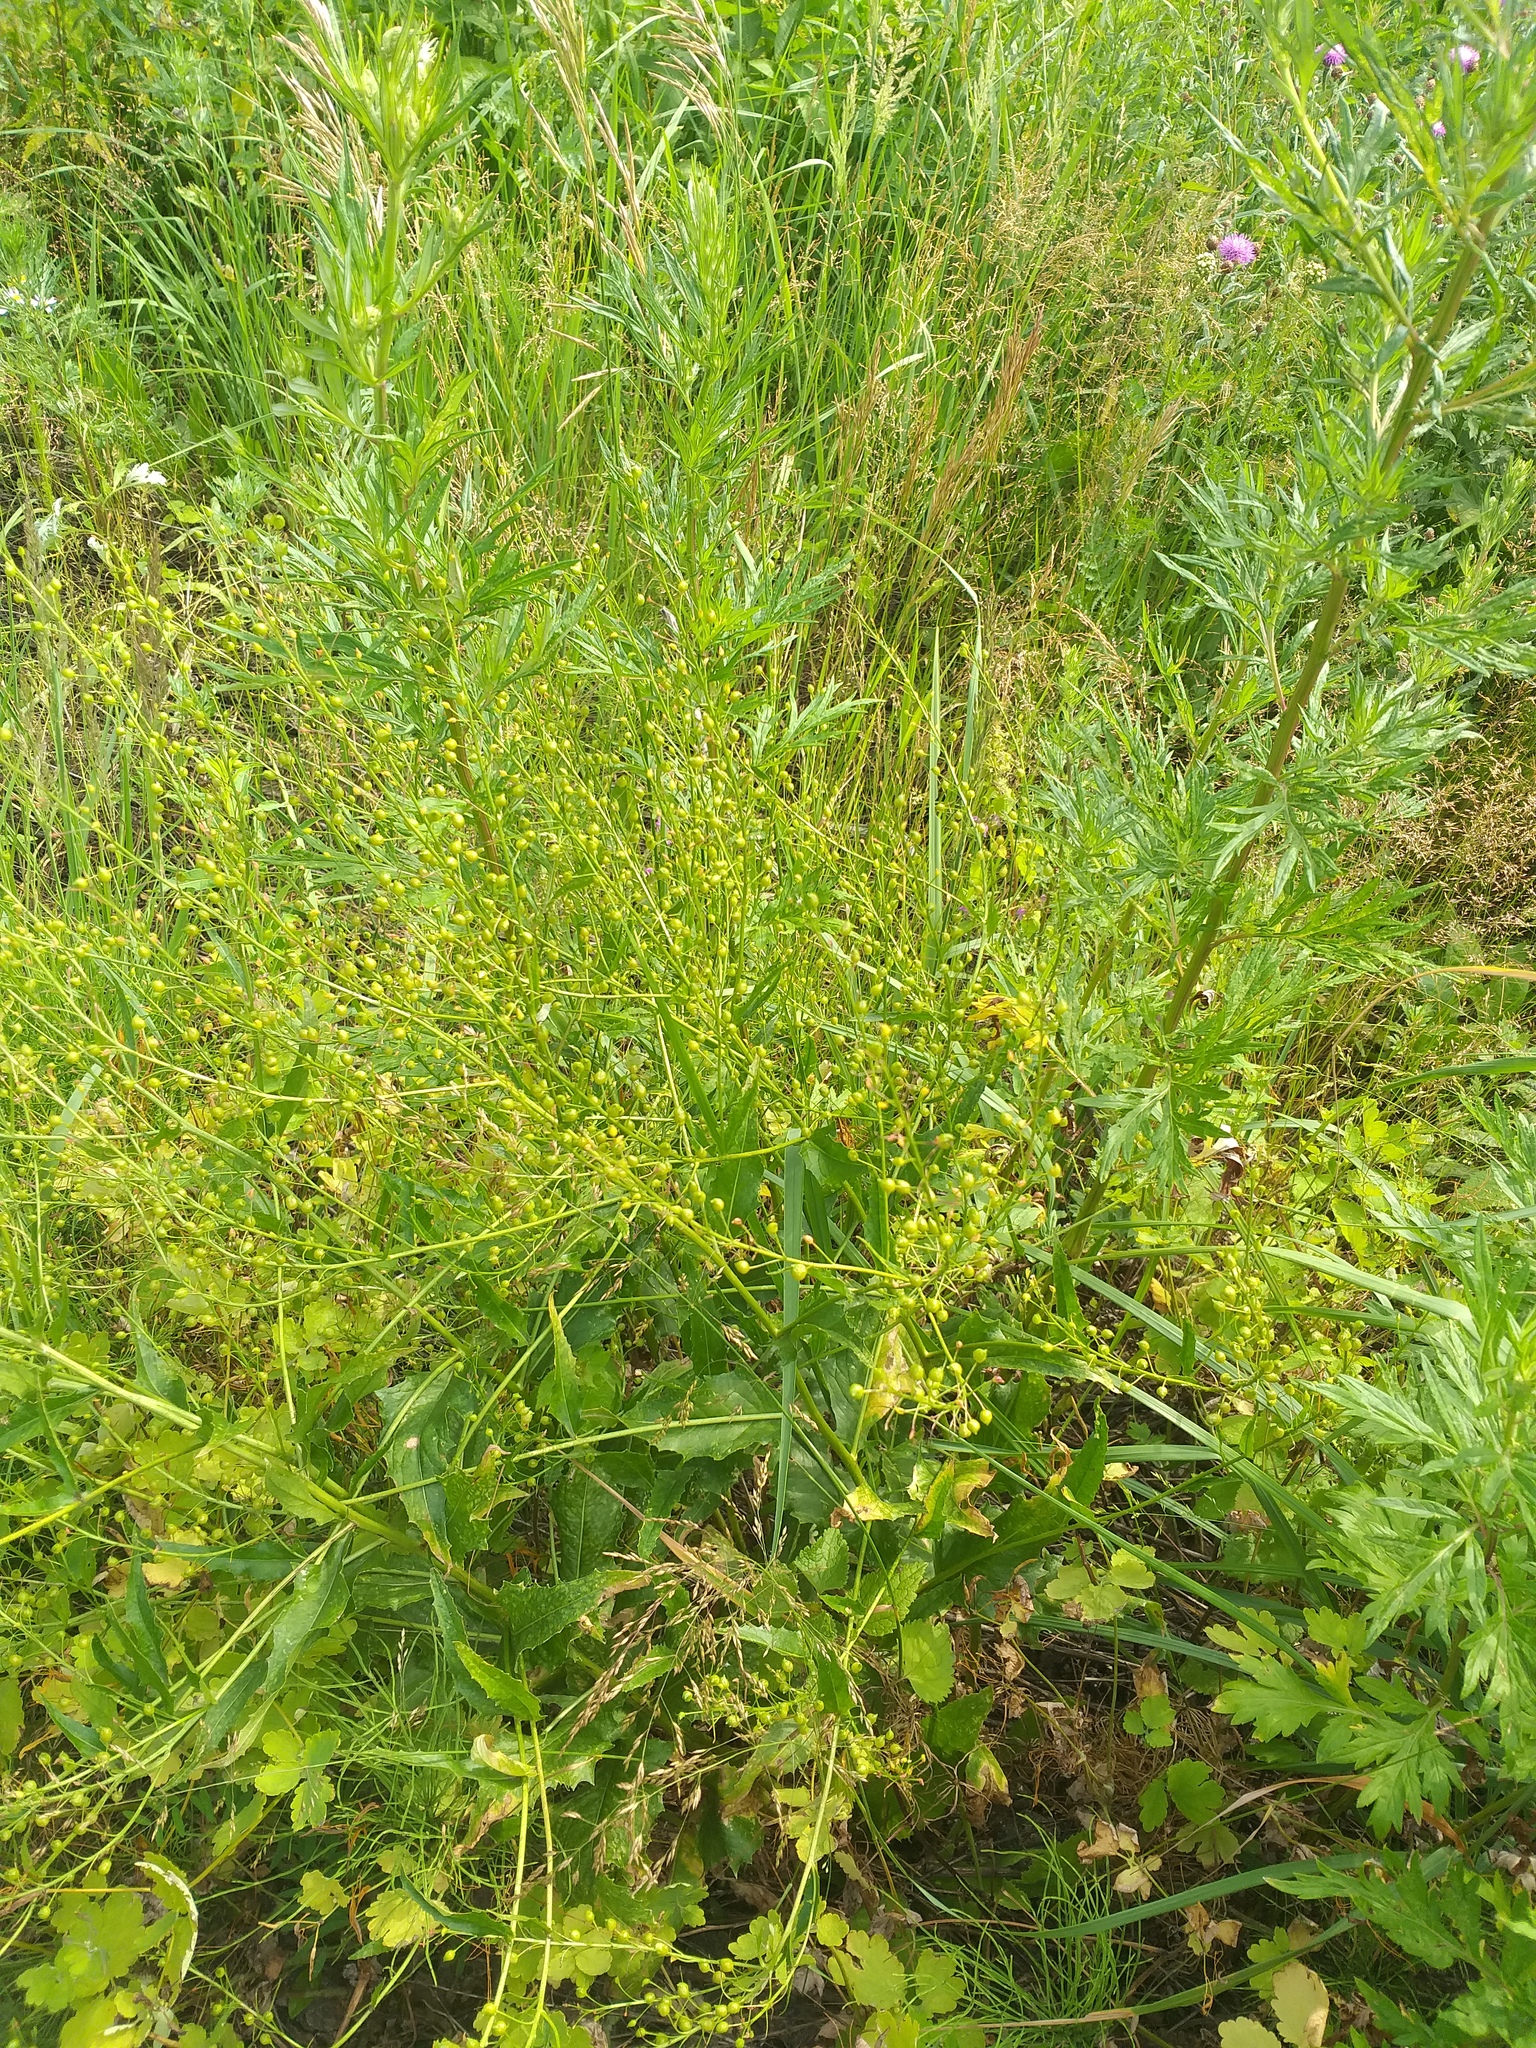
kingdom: Plantae
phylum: Tracheophyta
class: Magnoliopsida
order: Brassicales
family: Brassicaceae
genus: Bunias
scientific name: Bunias orientalis
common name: Warty-cabbage
